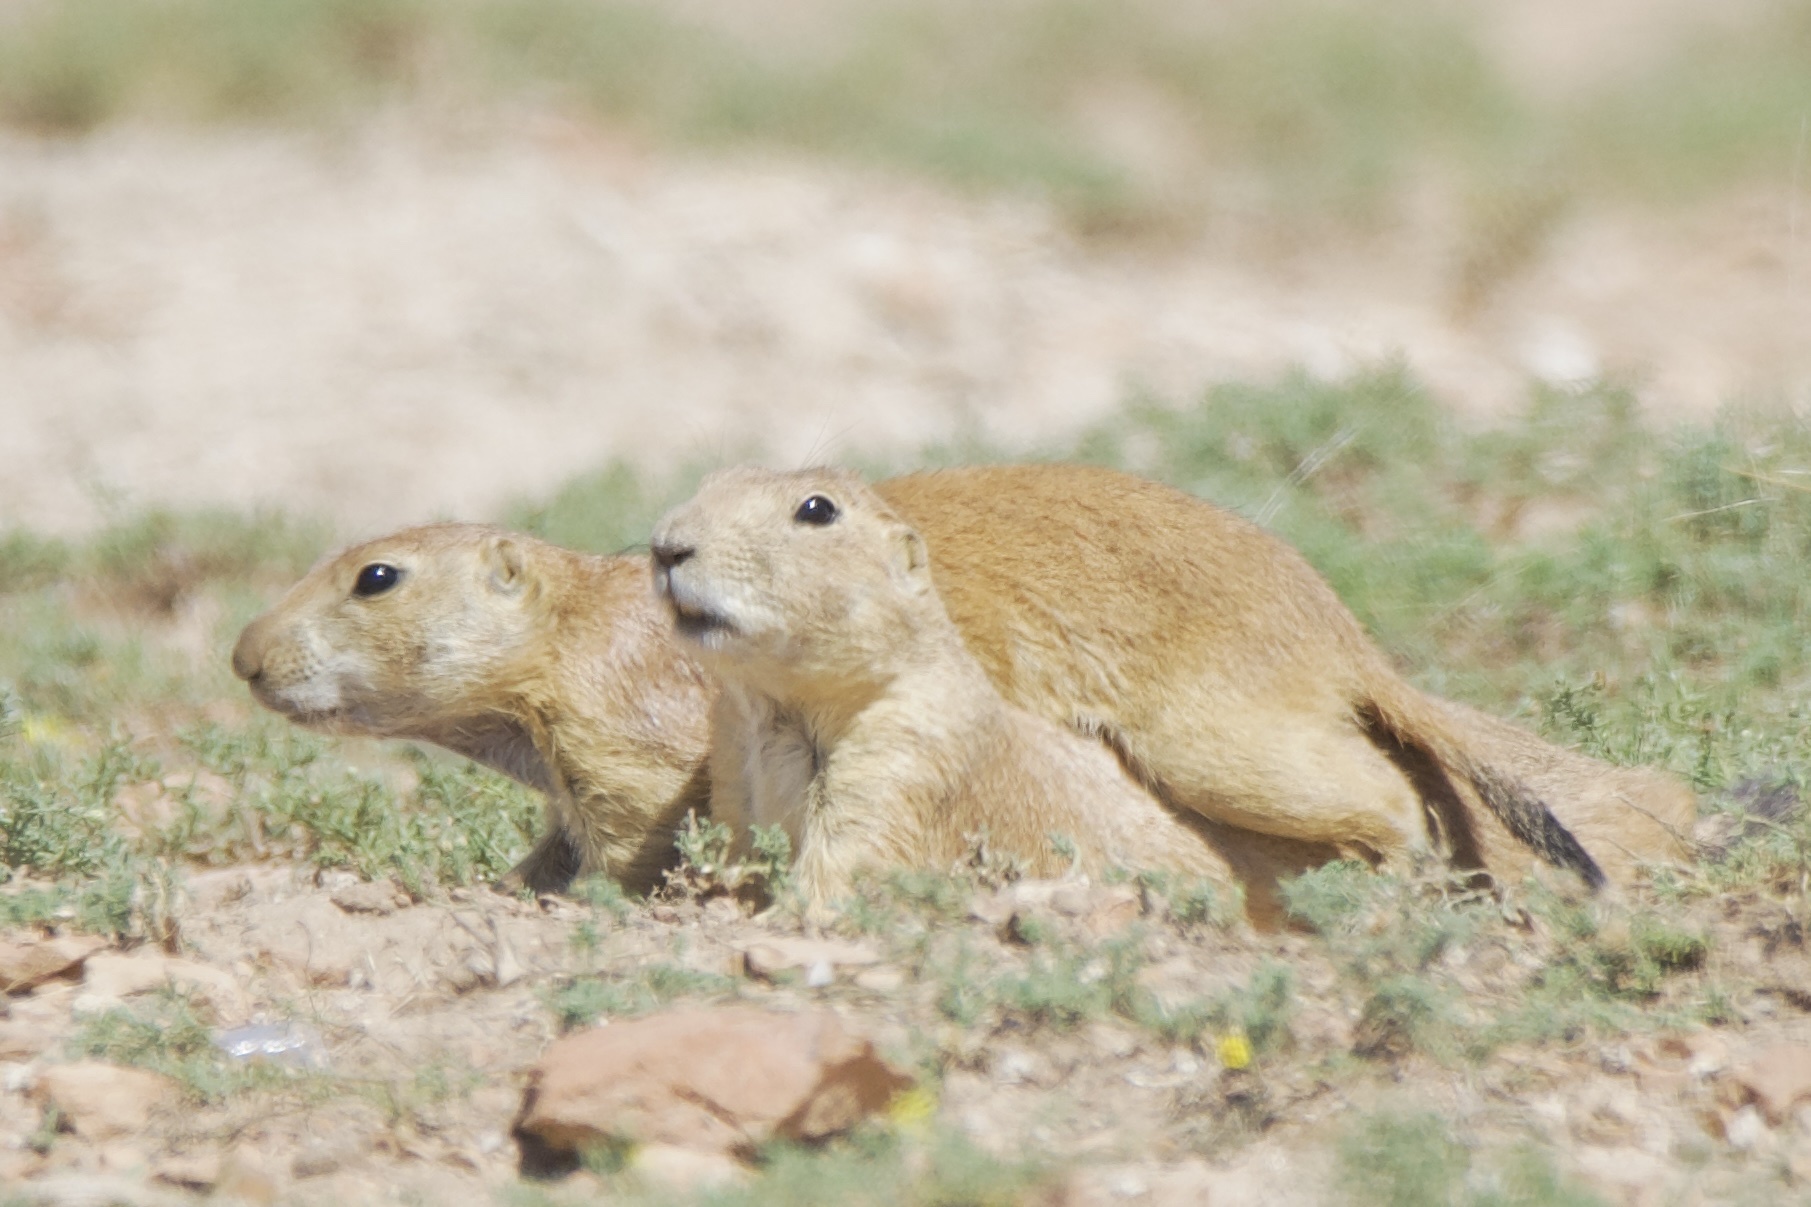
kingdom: Animalia
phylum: Chordata
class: Mammalia
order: Rodentia
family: Sciuridae
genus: Cynomys
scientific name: Cynomys ludovicianus
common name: Black-tailed prairie dog
